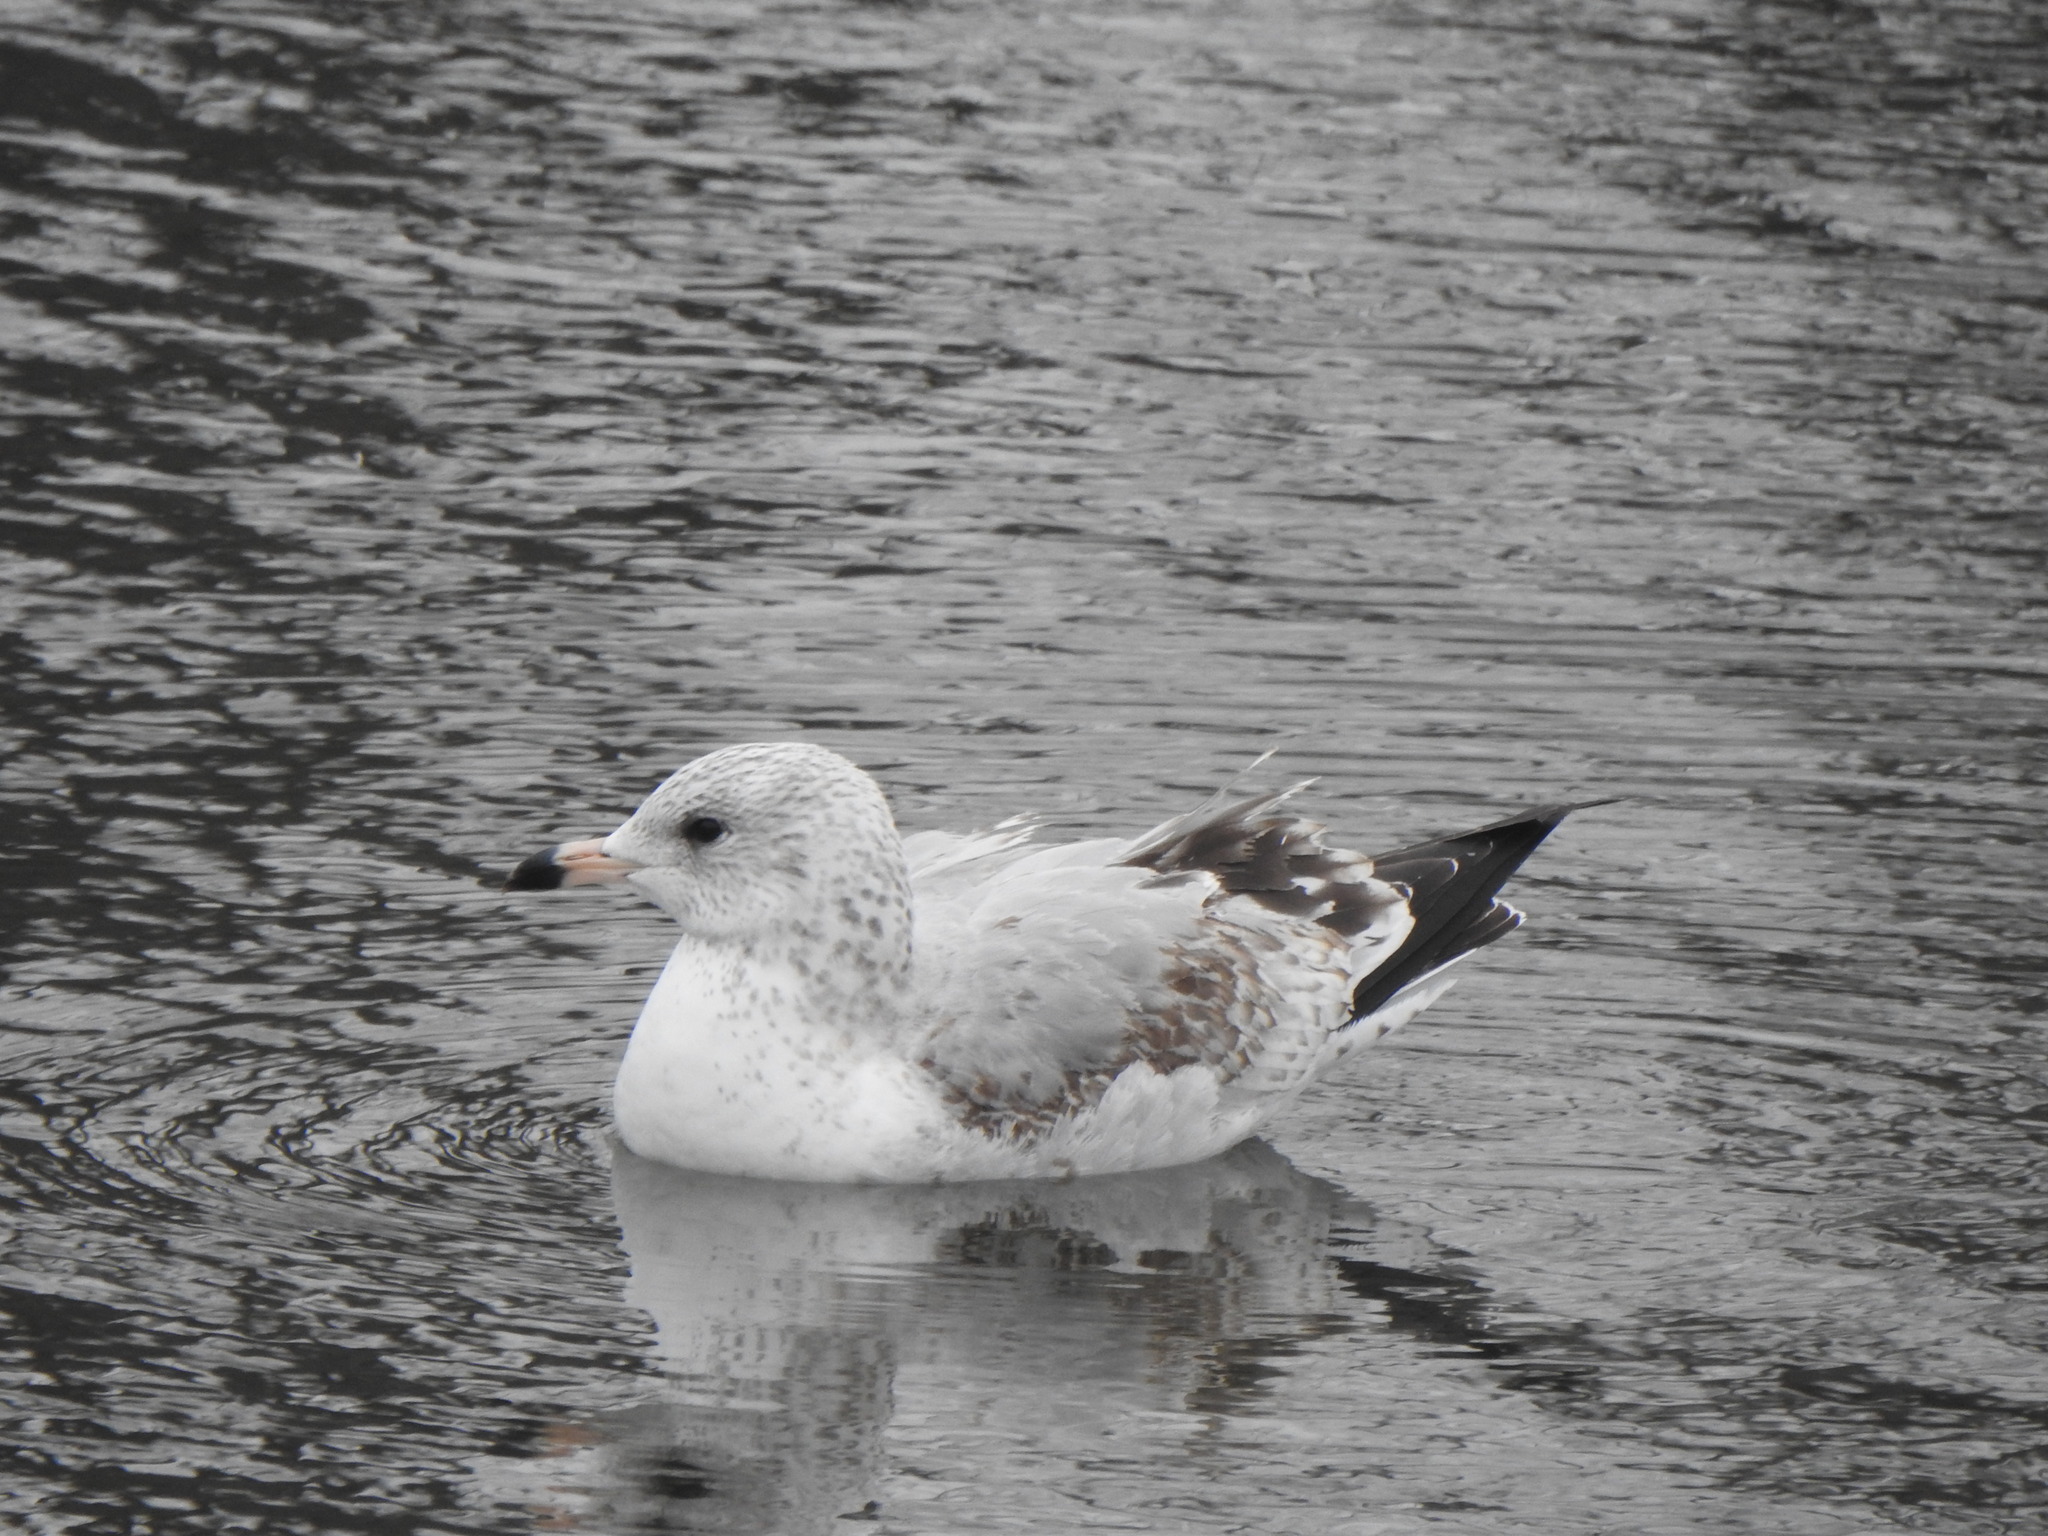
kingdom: Animalia
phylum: Chordata
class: Aves
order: Charadriiformes
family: Laridae
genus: Larus
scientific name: Larus delawarensis
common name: Ring-billed gull
